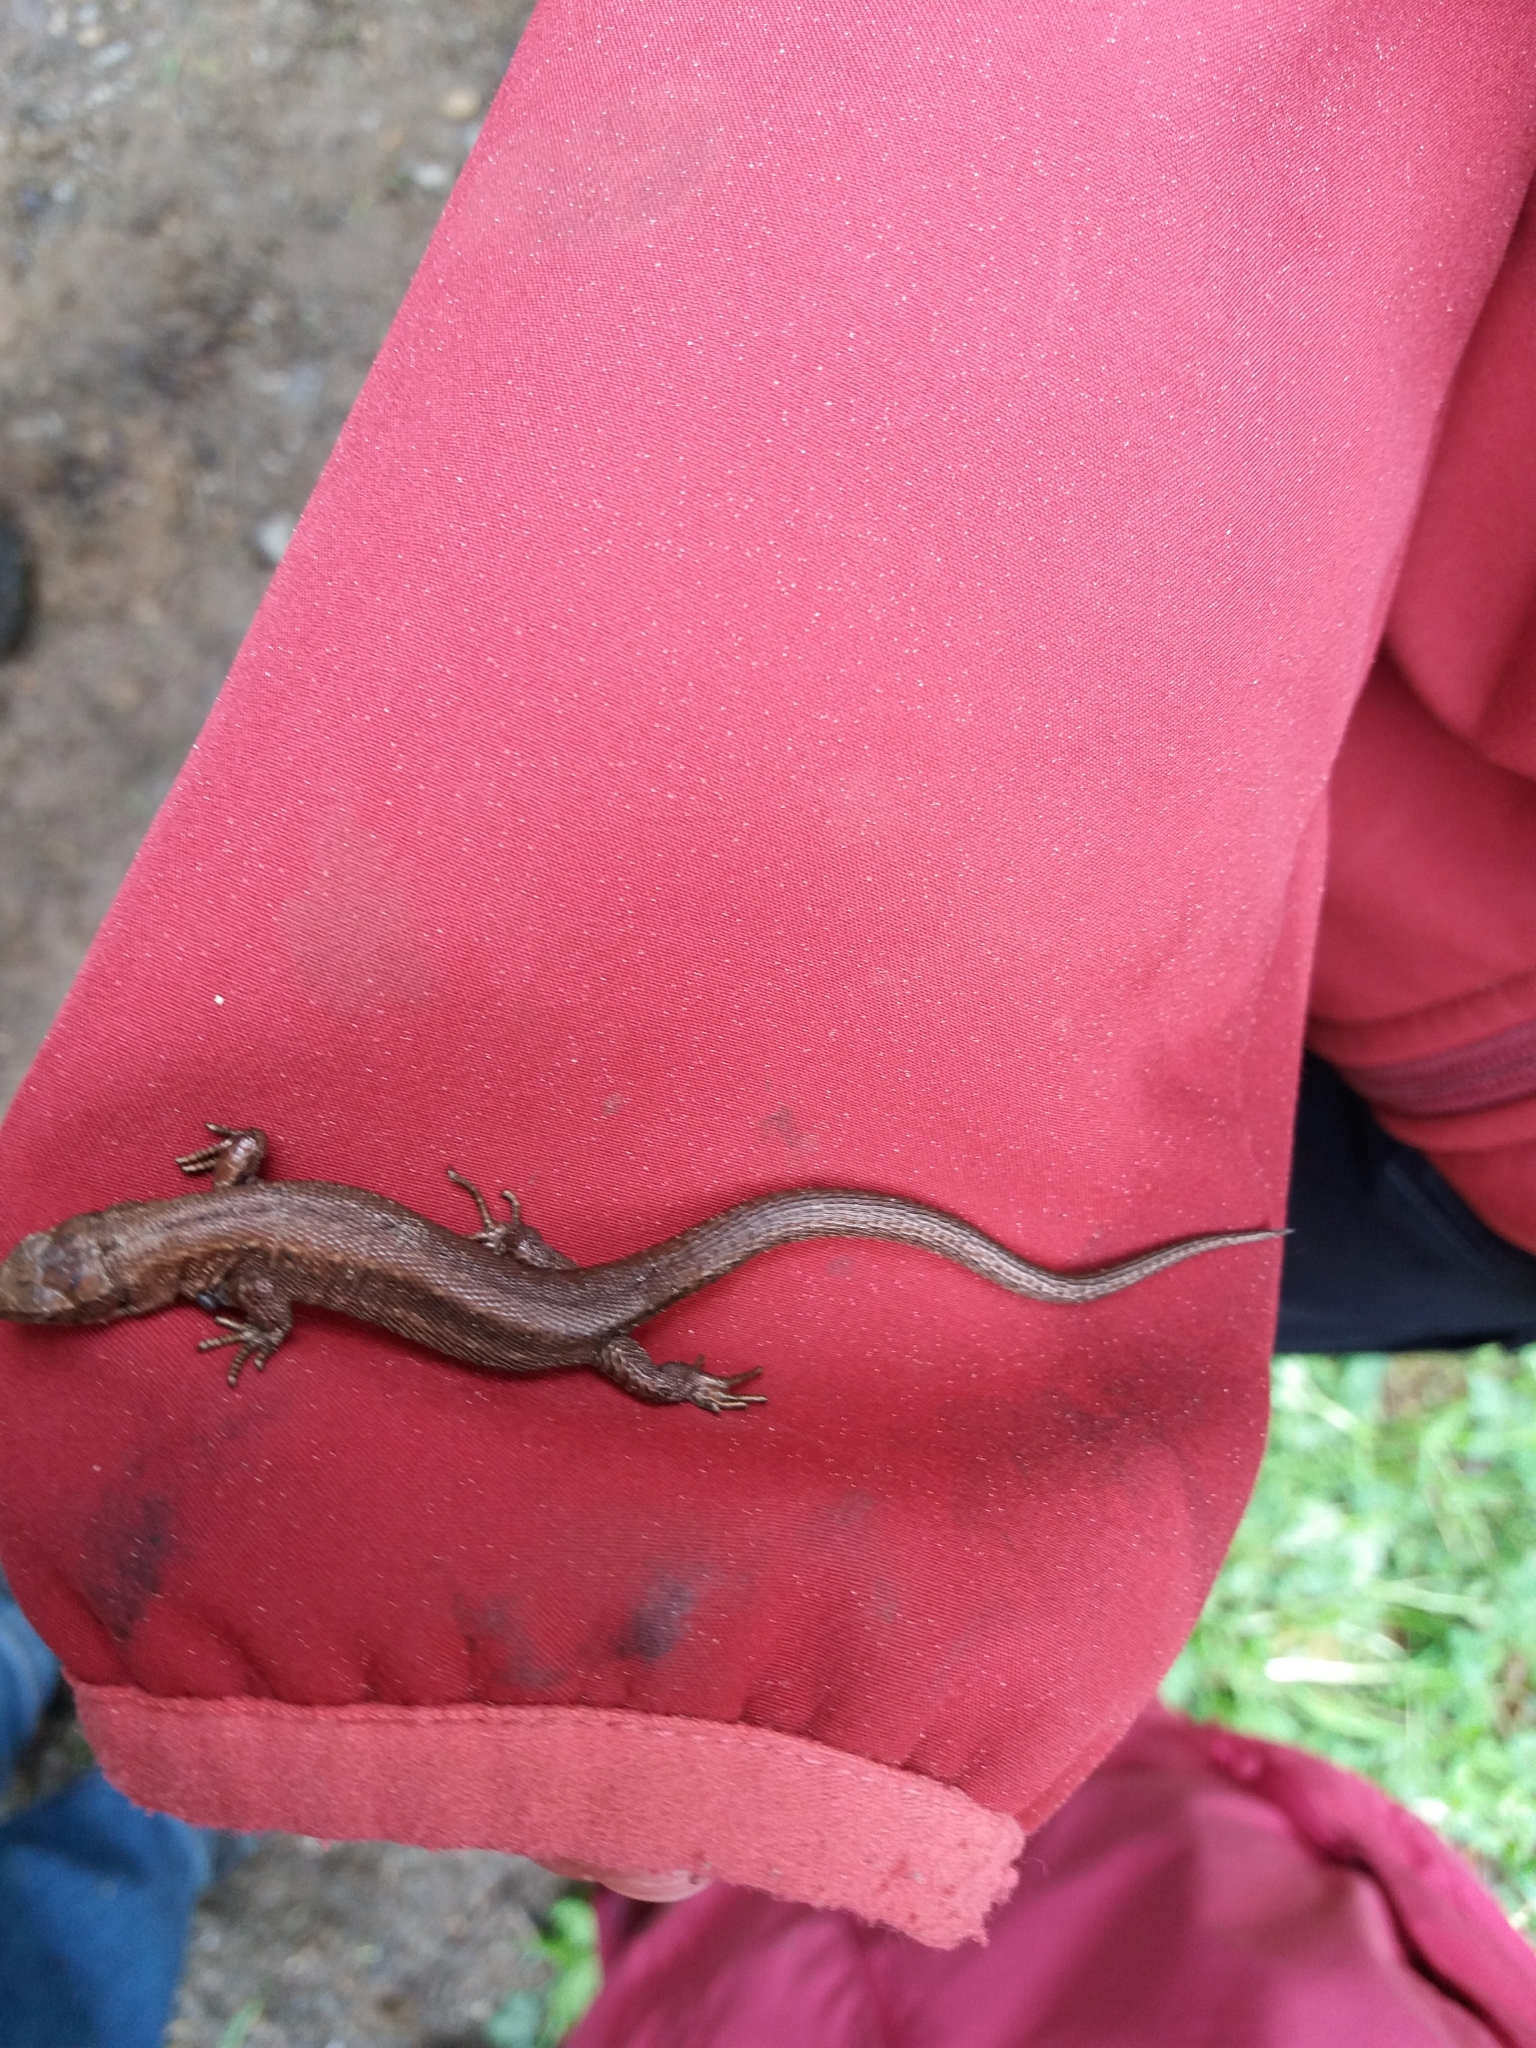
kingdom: Animalia
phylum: Chordata
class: Squamata
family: Lacertidae
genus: Zootoca
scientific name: Zootoca vivipara
